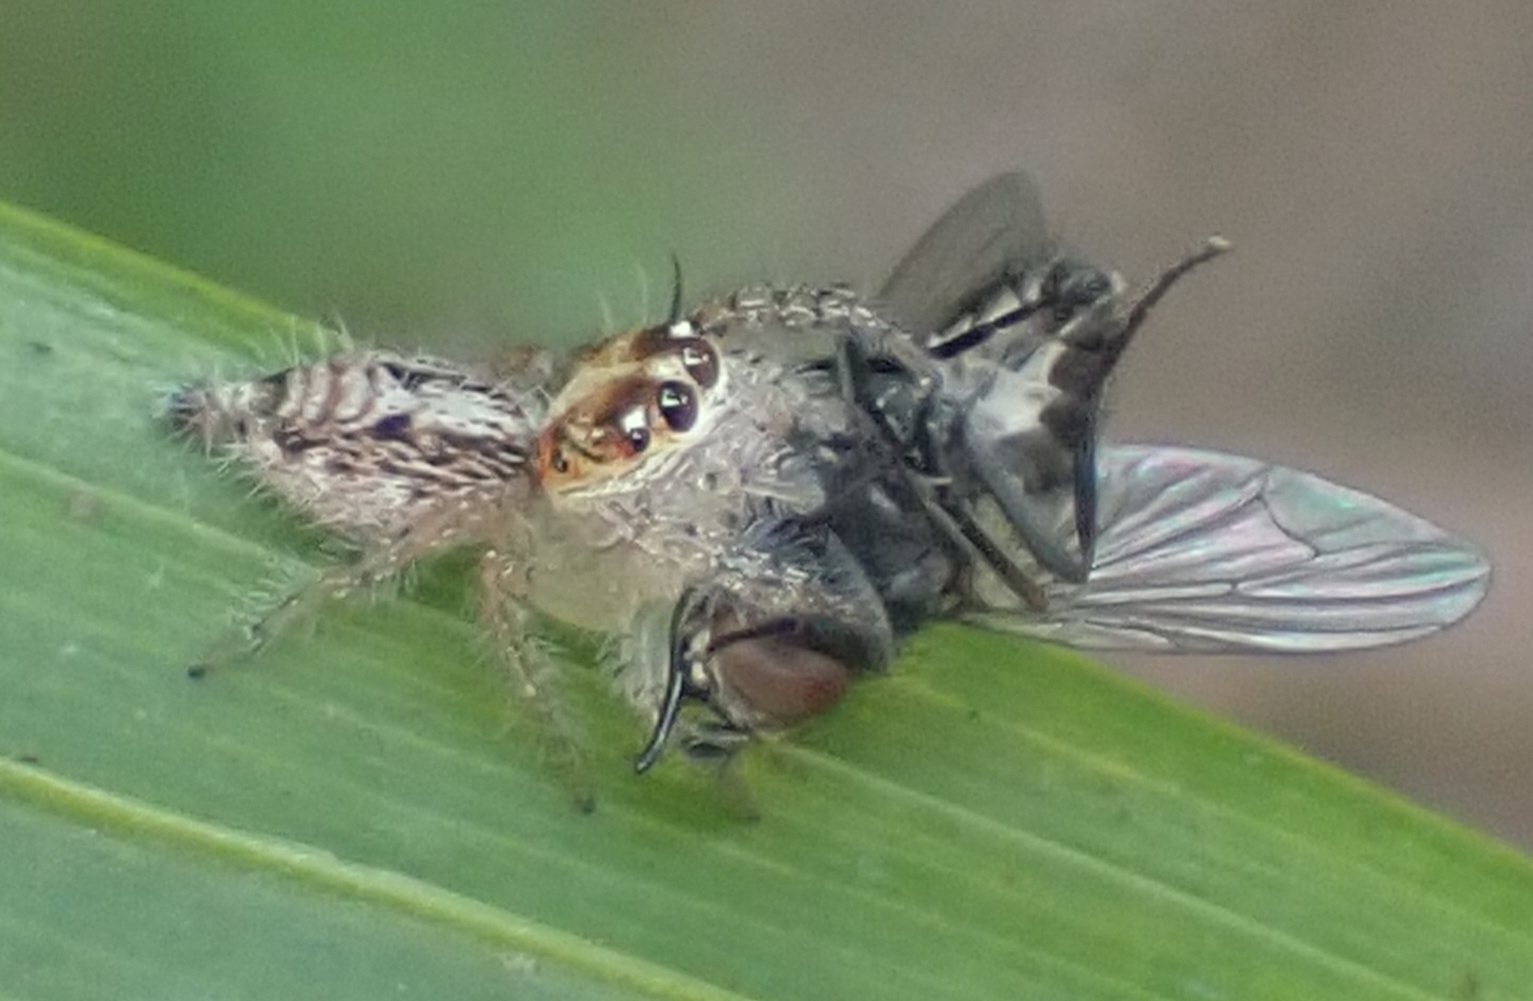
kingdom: Animalia
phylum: Arthropoda
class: Arachnida
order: Araneae
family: Salticidae
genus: Hyllus
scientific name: Hyllus semicupreus
